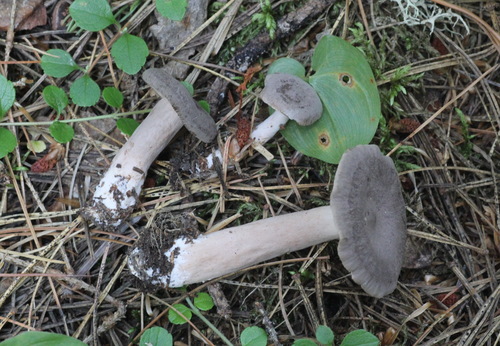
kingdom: Fungi
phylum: Basidiomycota
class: Agaricomycetes
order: Russulales
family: Russulaceae
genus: Lactarius
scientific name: Lactarius mammosus
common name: Pap milkcap
